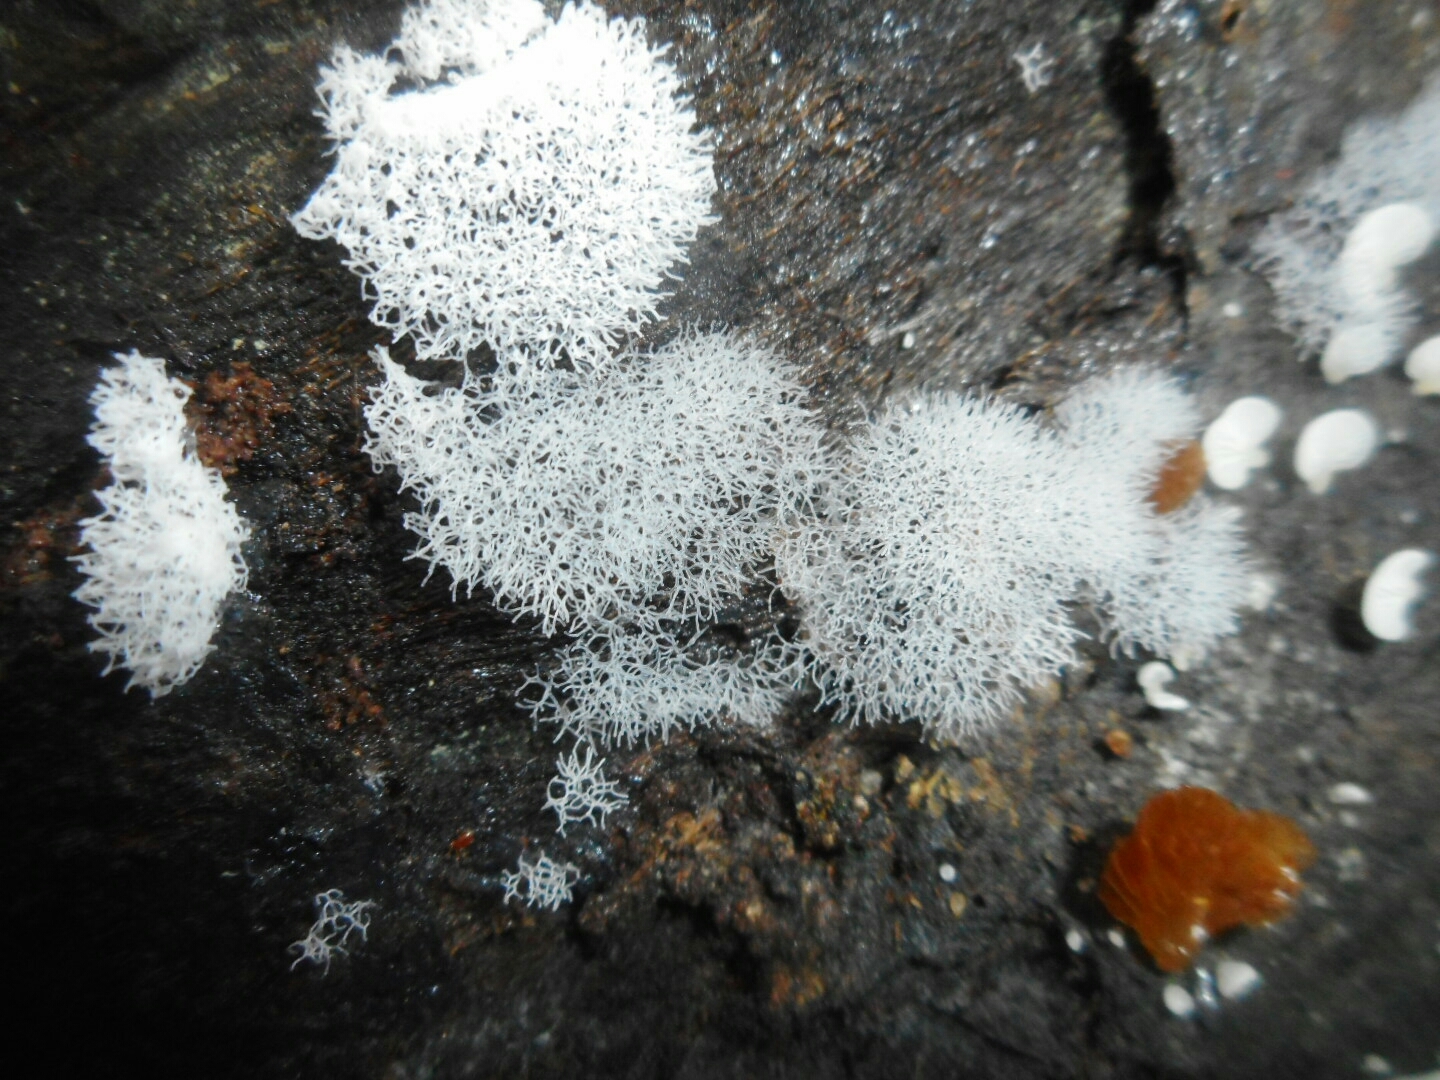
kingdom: Protozoa
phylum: Mycetozoa
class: Protosteliomycetes
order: Ceratiomyxales
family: Ceratiomyxaceae
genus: Ceratiomyxa
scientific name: Ceratiomyxa fruticulosa
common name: Honeycomb coral slime mold
